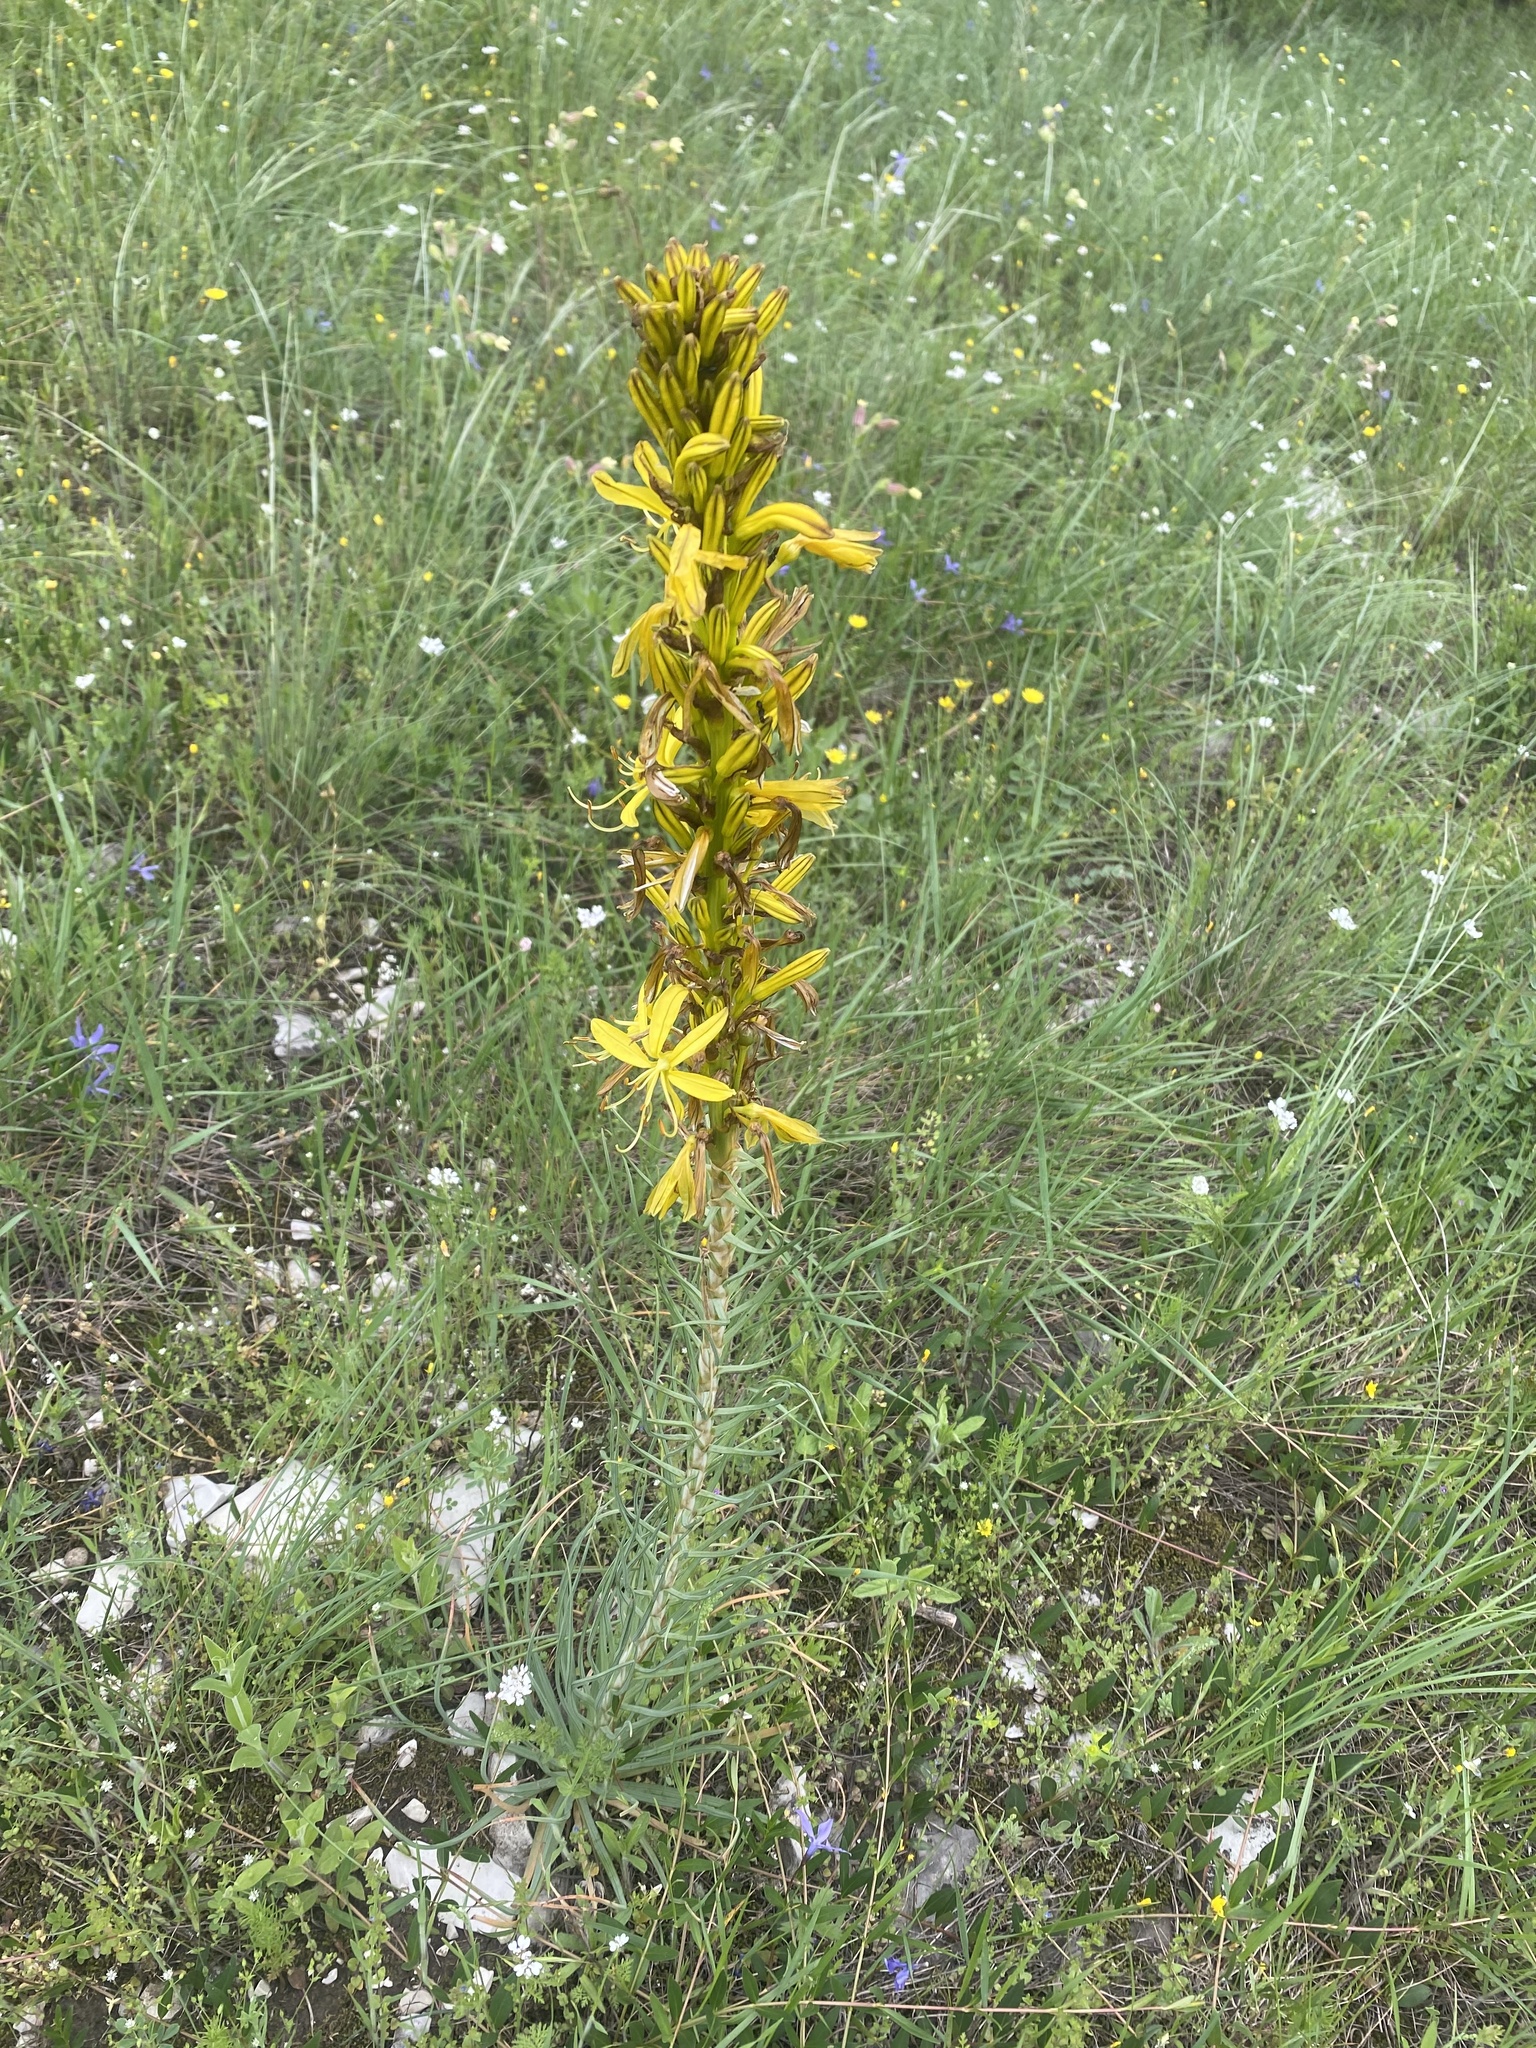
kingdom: Plantae
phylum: Tracheophyta
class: Liliopsida
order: Asparagales
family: Asphodelaceae
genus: Asphodeline
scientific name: Asphodeline lutea
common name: Yellow asphodel
